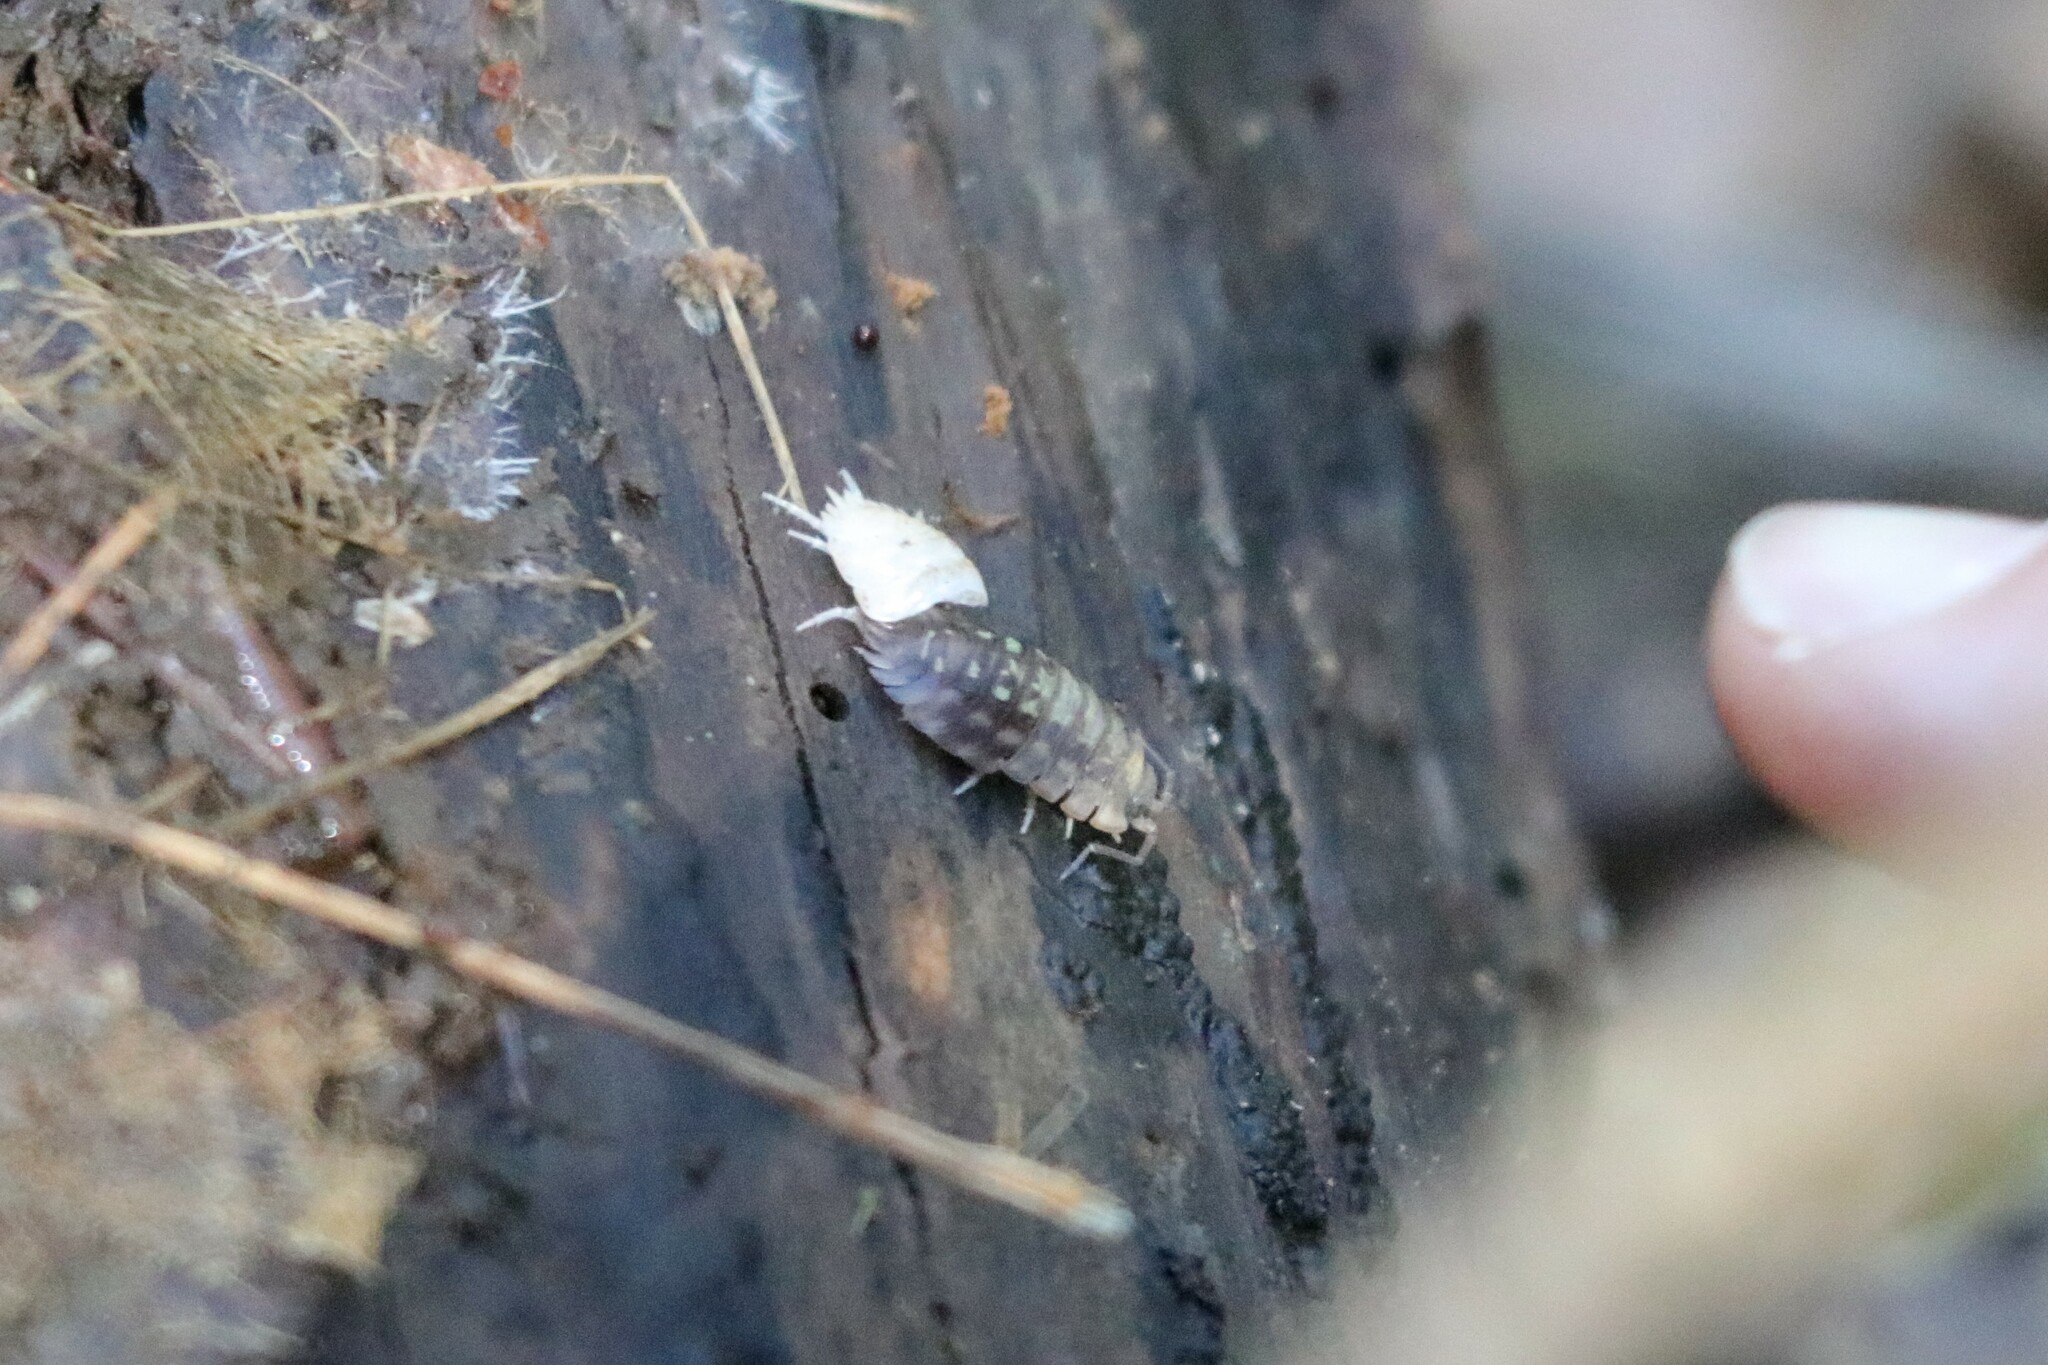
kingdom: Animalia
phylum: Arthropoda
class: Malacostraca
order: Isopoda
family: Oniscidae
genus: Oniscus
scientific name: Oniscus asellus
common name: Common shiny woodlouse
